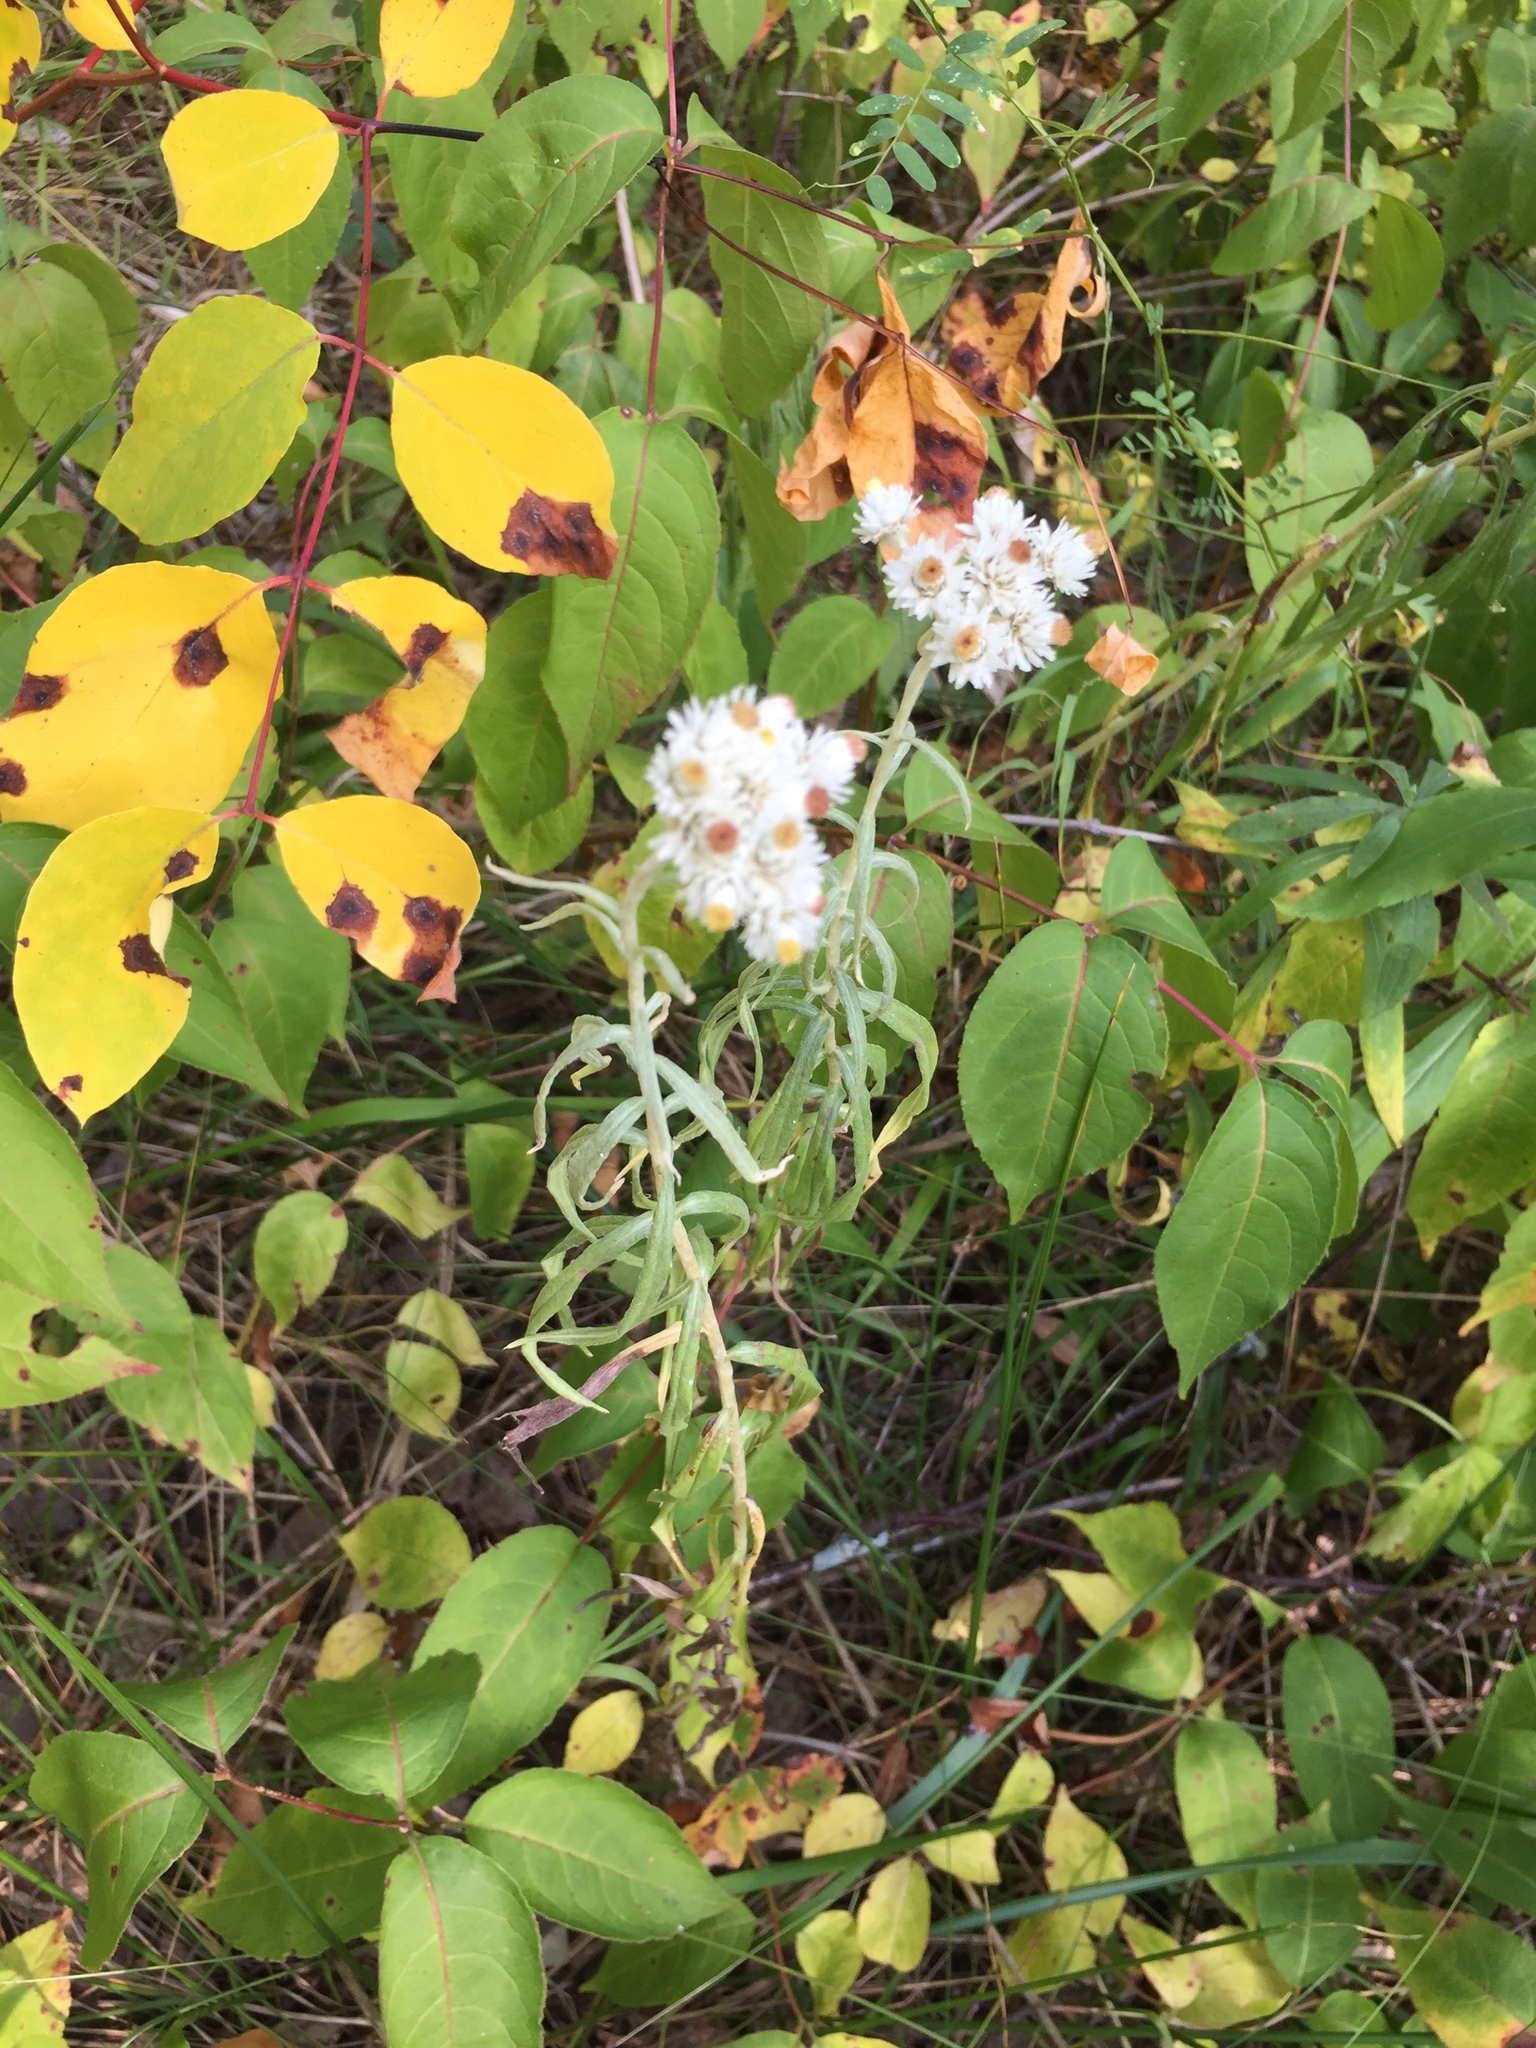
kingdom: Plantae
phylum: Tracheophyta
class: Magnoliopsida
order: Asterales
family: Asteraceae
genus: Anaphalis
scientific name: Anaphalis margaritacea
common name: Pearly everlasting
